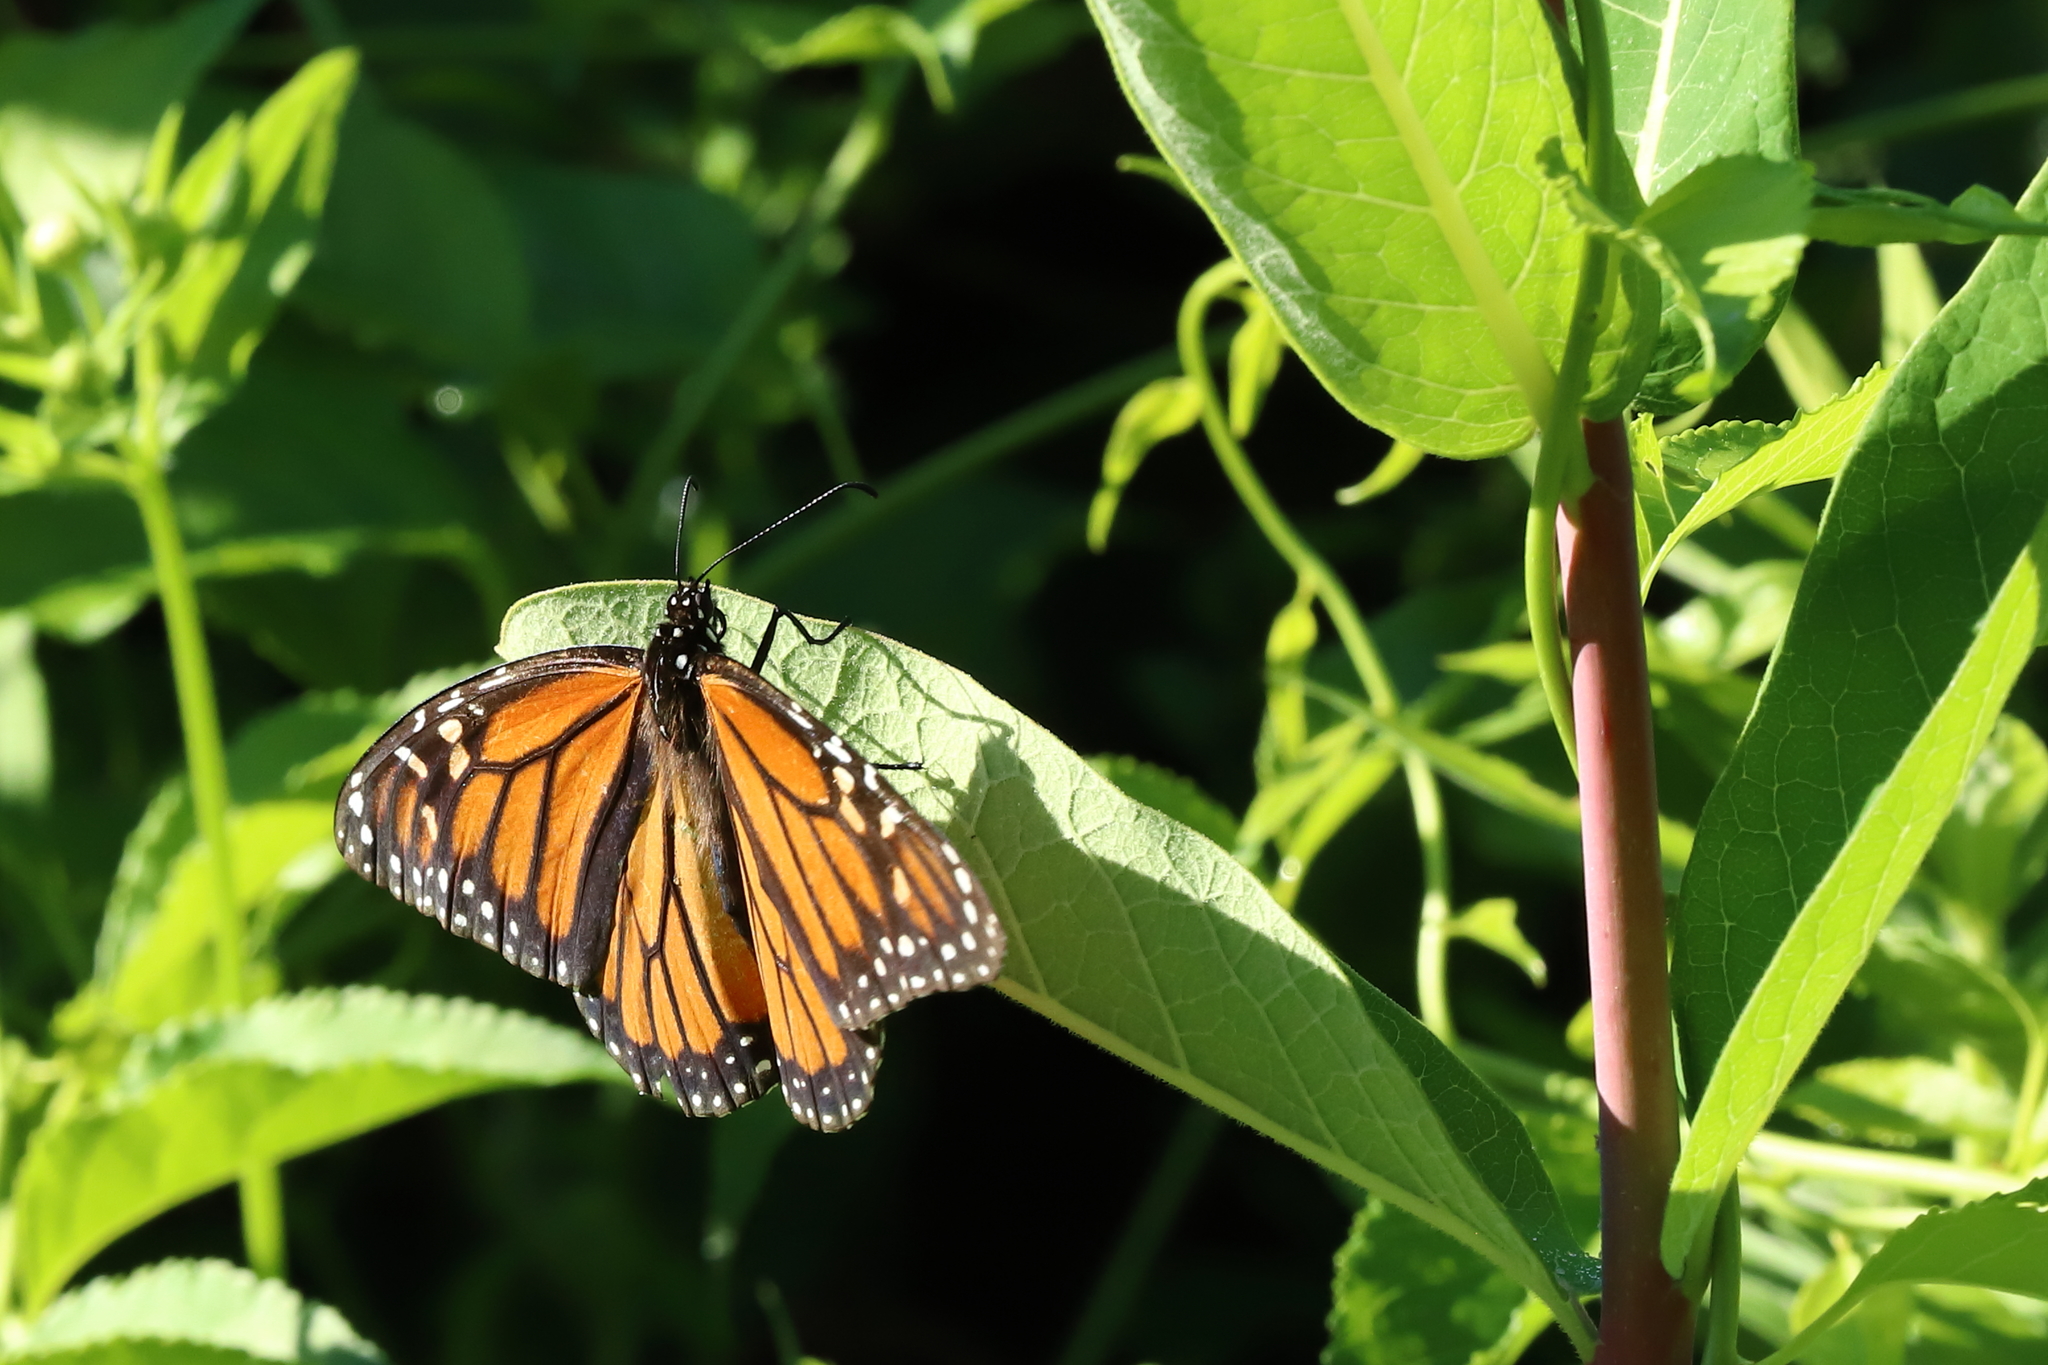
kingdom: Animalia
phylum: Arthropoda
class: Insecta
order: Lepidoptera
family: Nymphalidae
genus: Danaus
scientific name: Danaus plexippus
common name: Monarch
